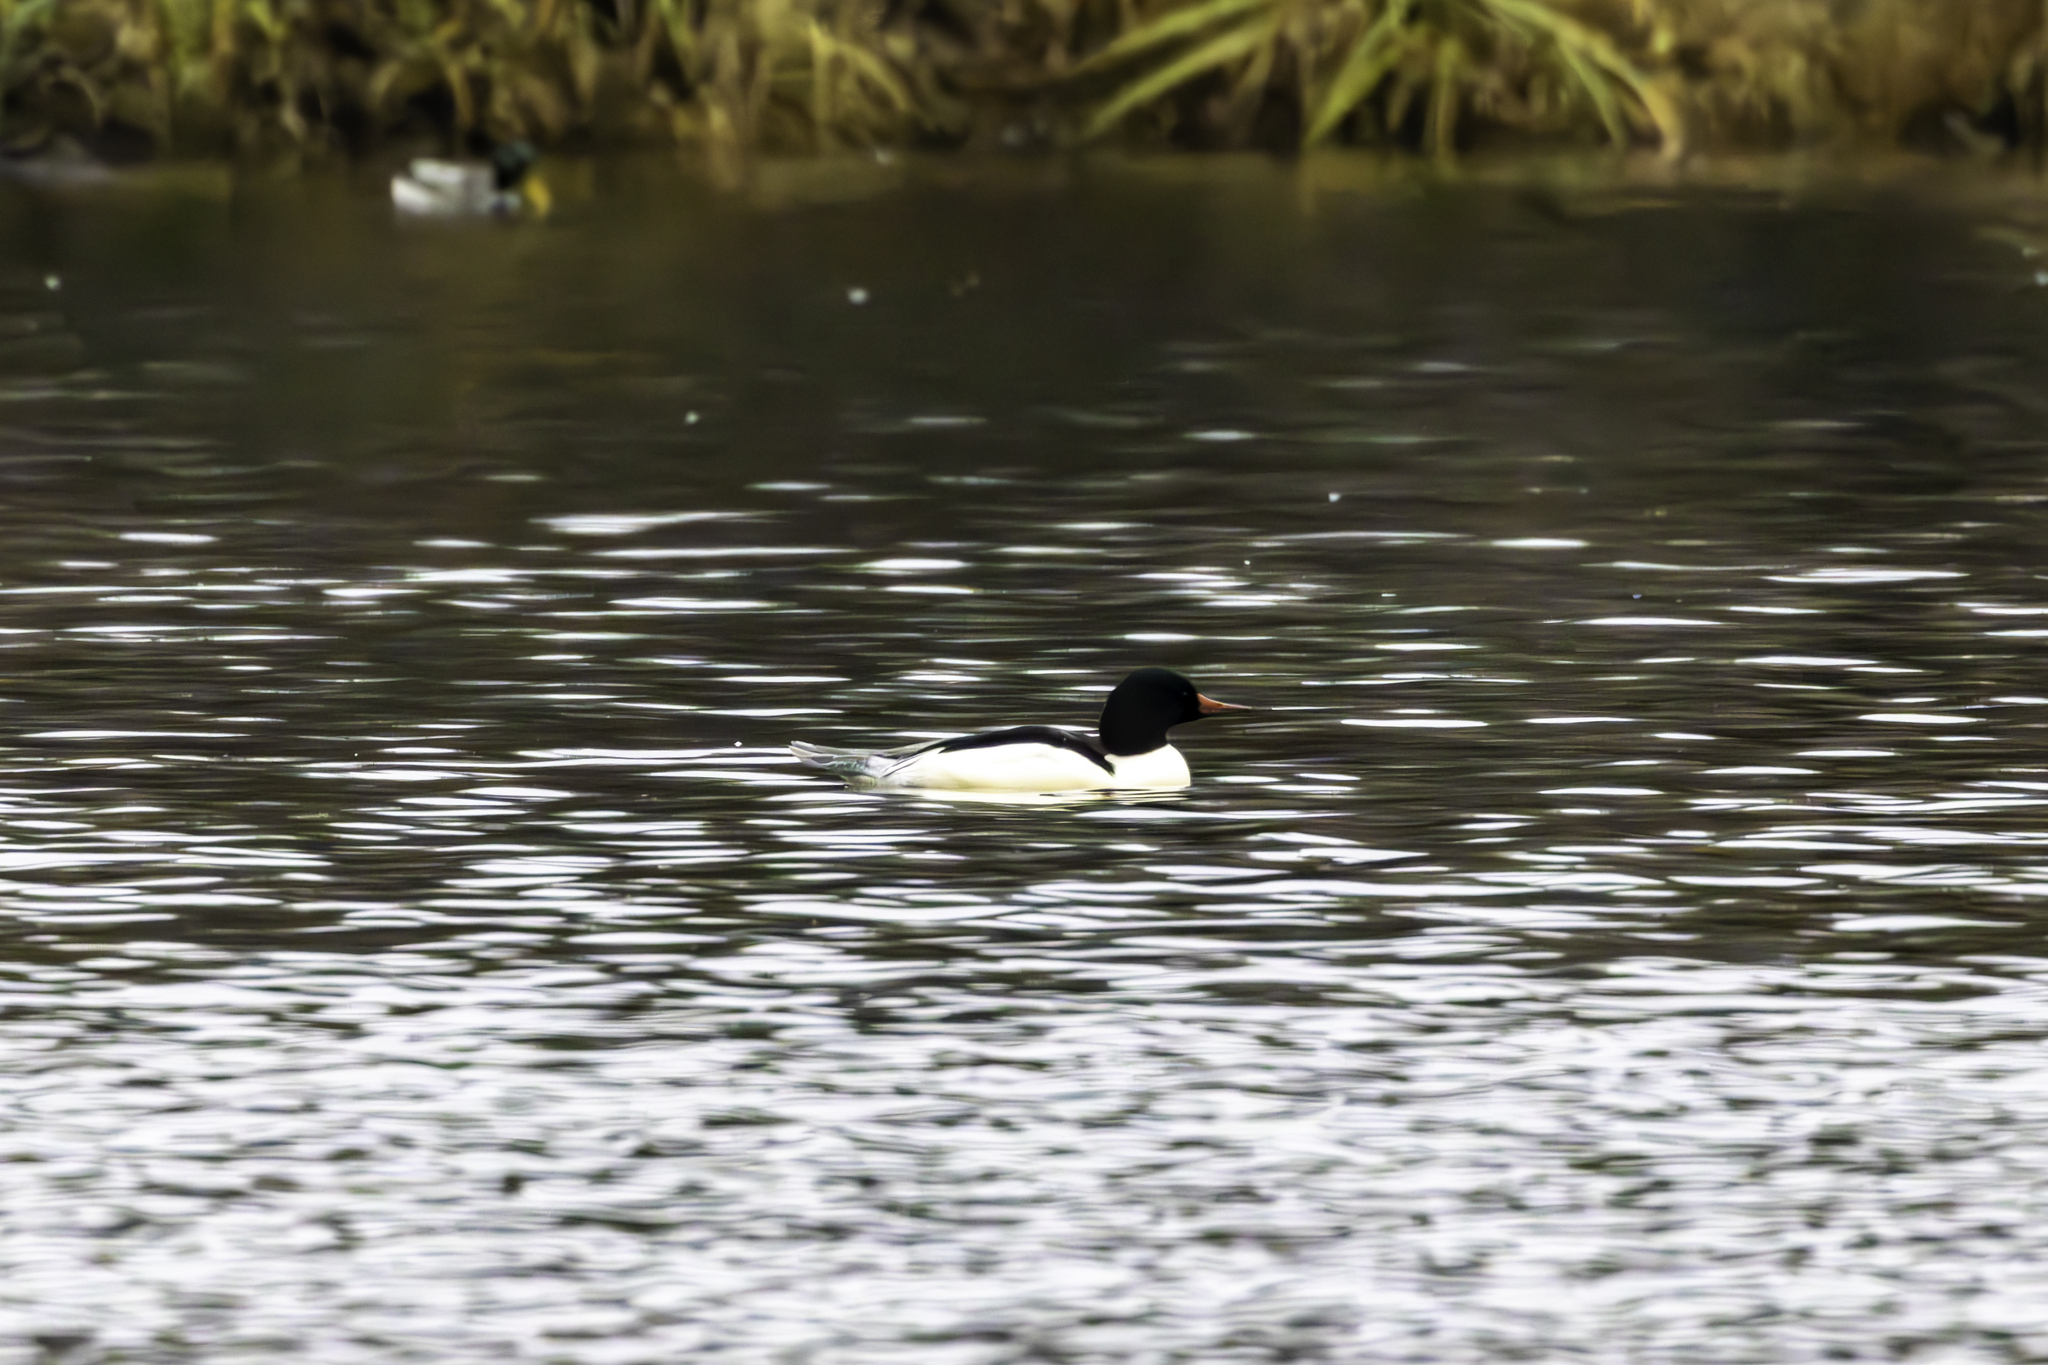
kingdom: Animalia
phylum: Chordata
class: Aves
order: Anseriformes
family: Anatidae
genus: Mergus
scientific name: Mergus merganser
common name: Common merganser
